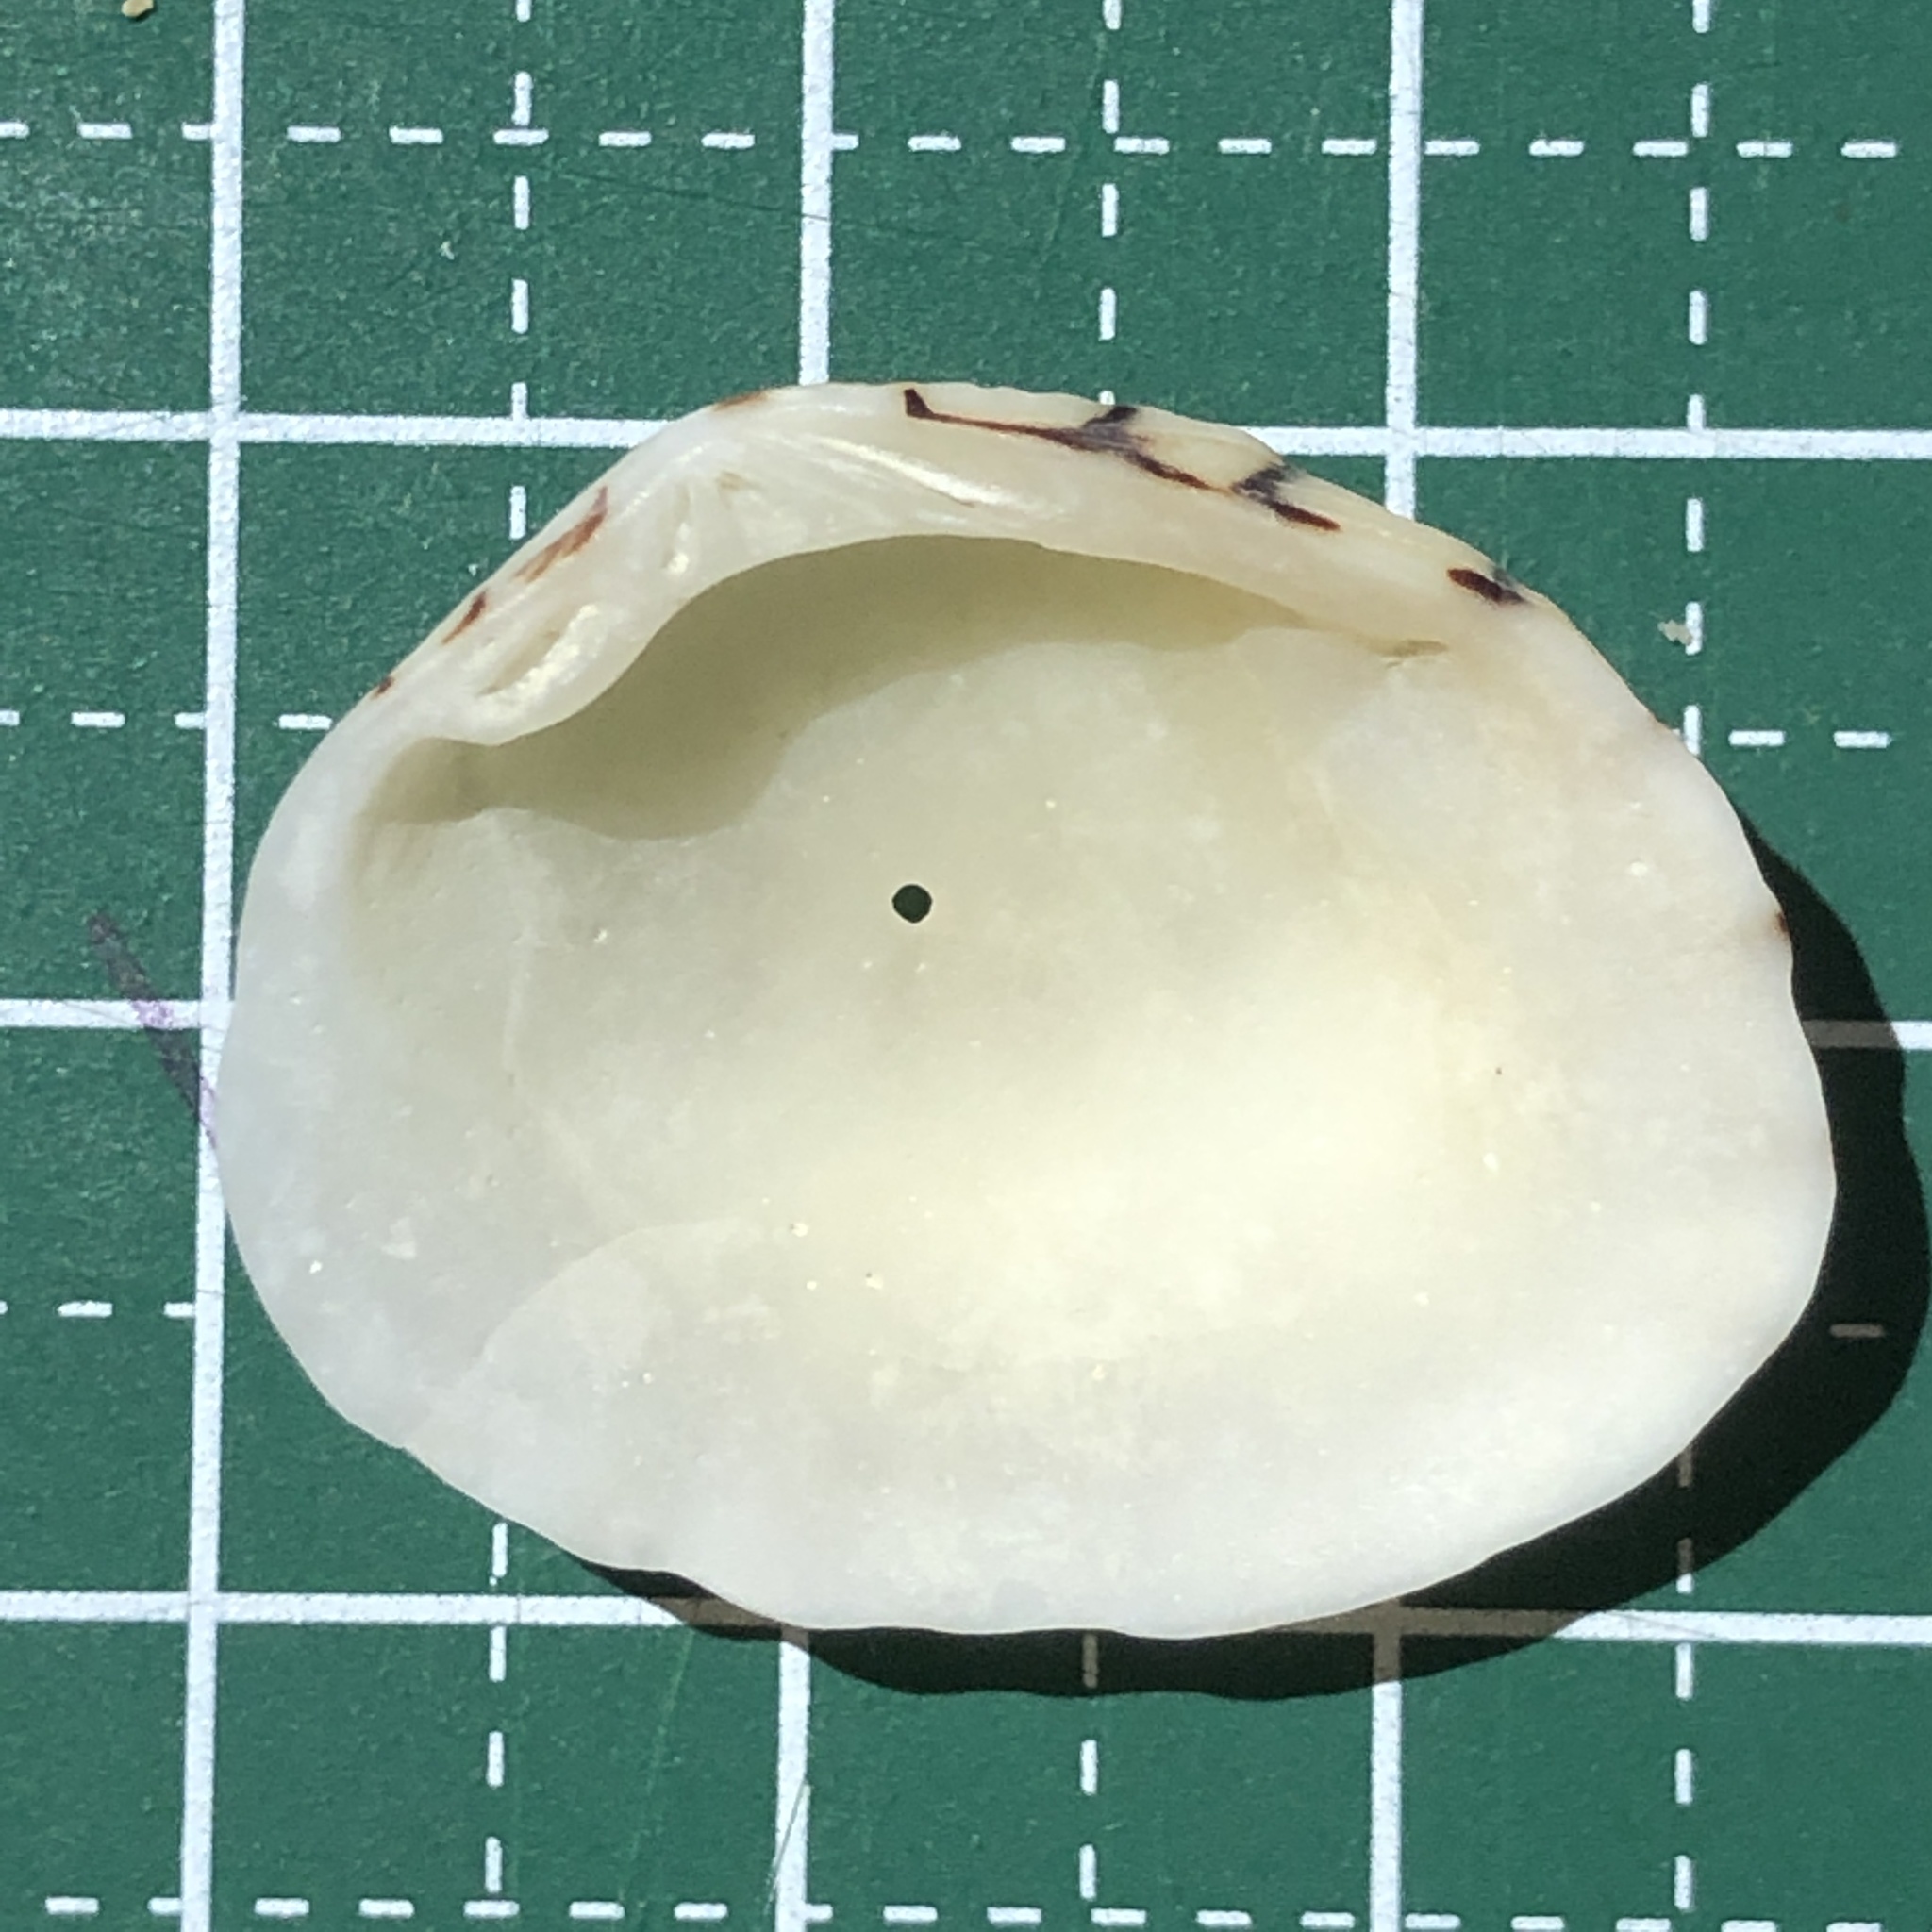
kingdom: Animalia
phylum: Mollusca
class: Bivalvia
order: Venerida
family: Veneridae
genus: Gafrarium
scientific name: Gafrarium dispar
